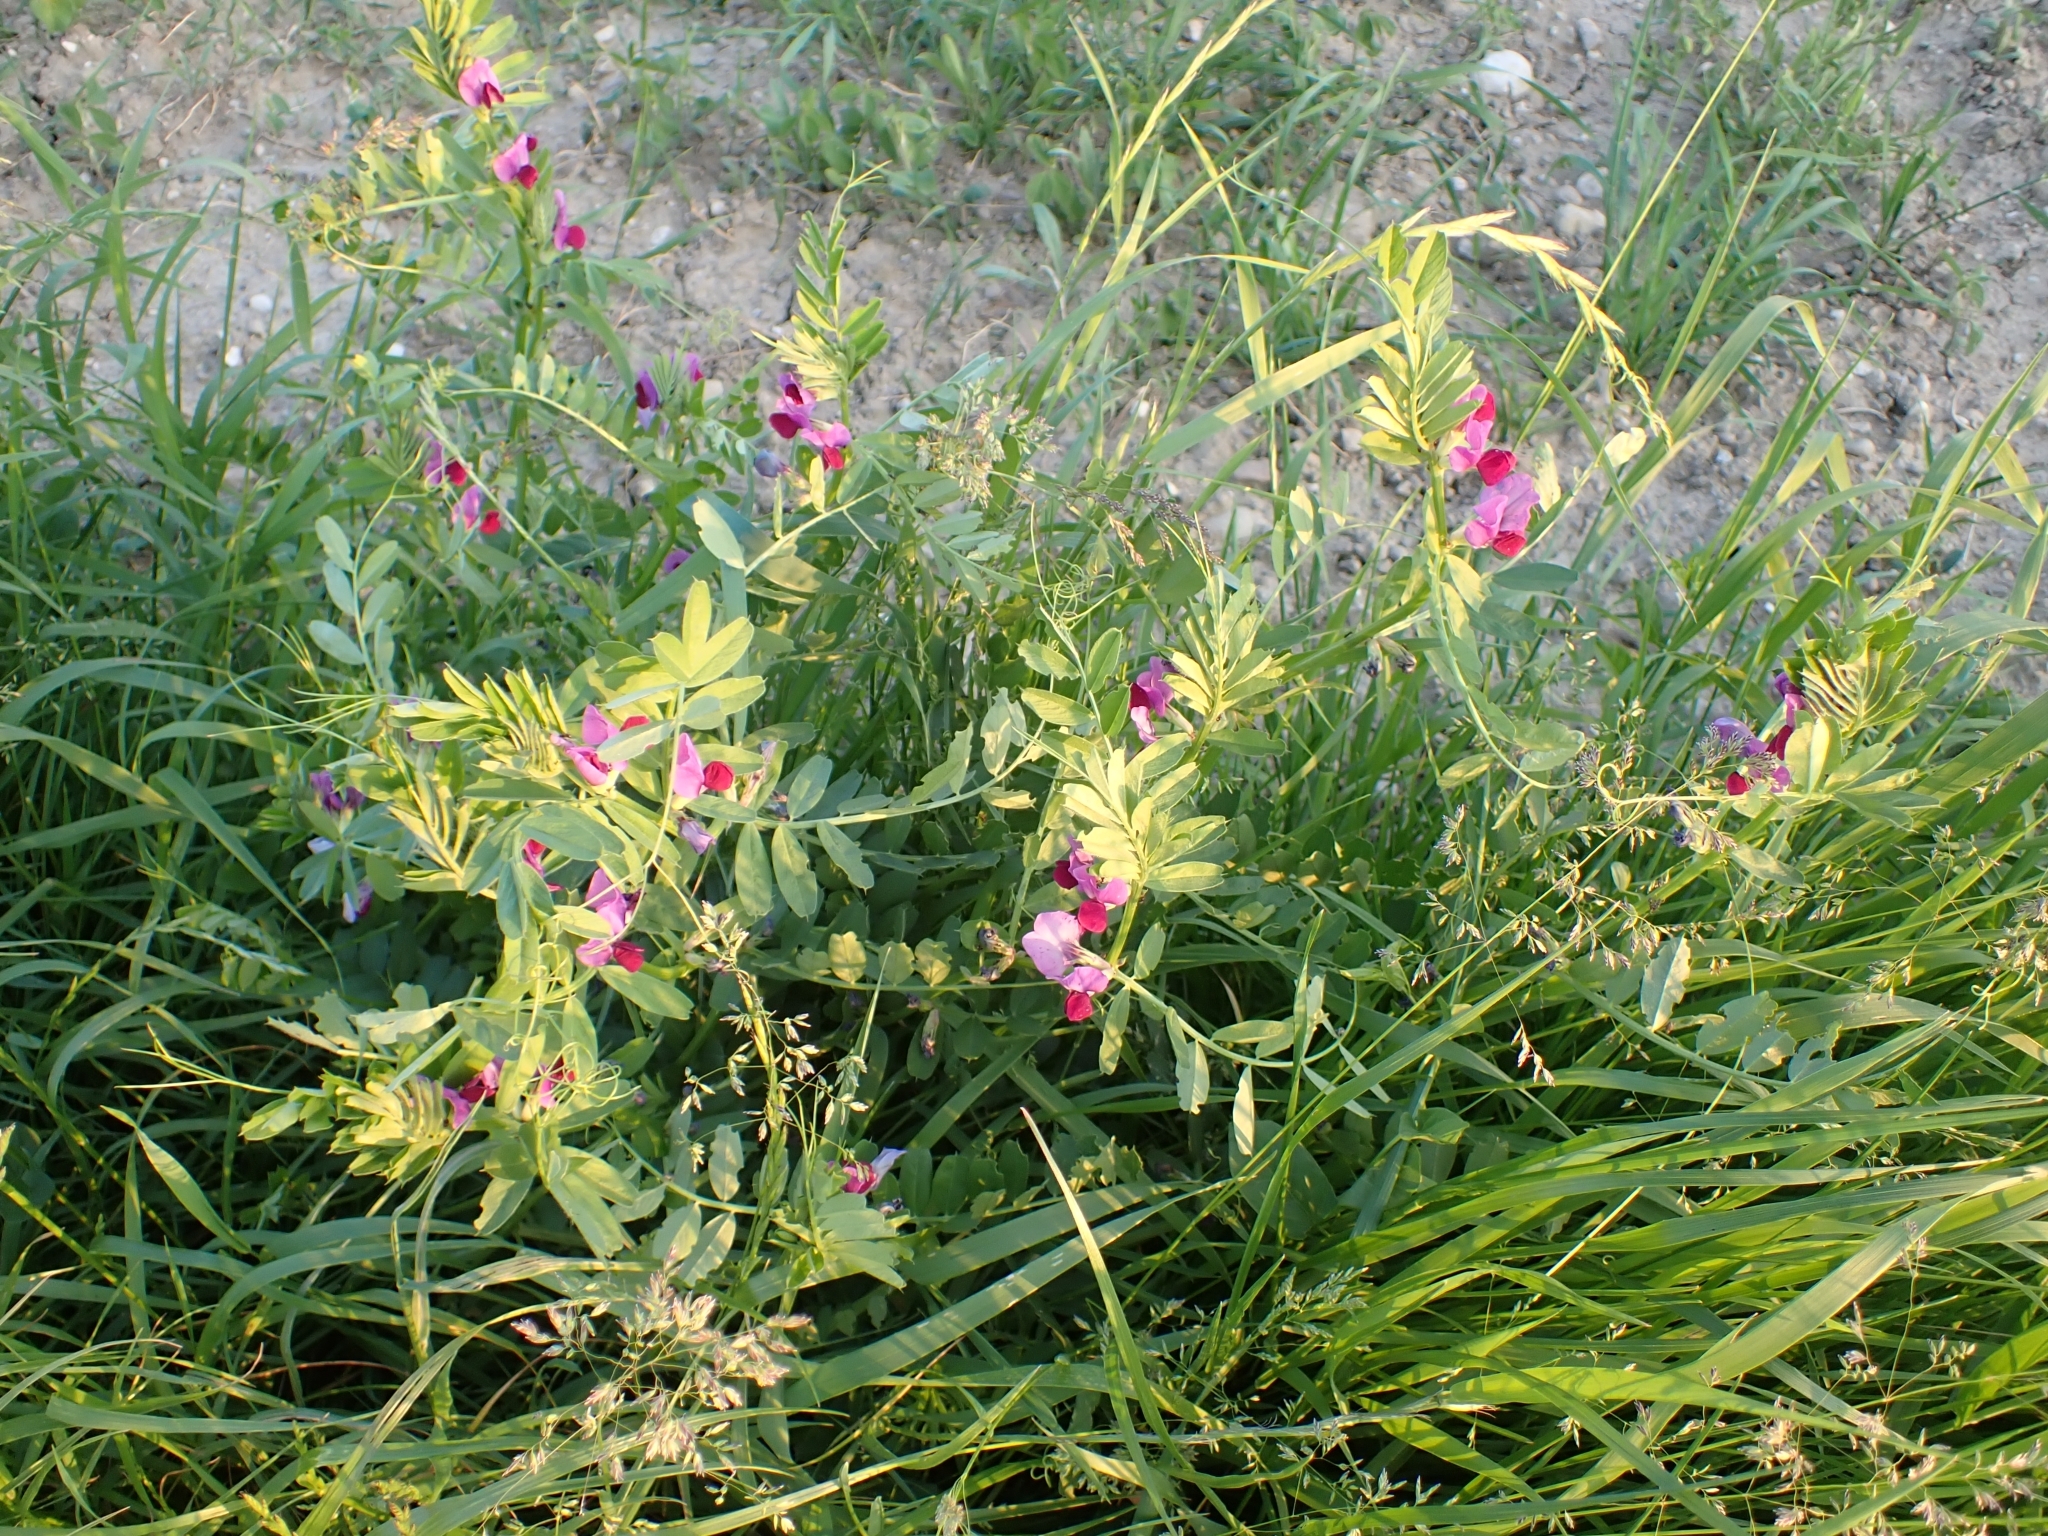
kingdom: Plantae
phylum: Tracheophyta
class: Magnoliopsida
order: Fabales
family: Fabaceae
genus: Vicia
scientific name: Vicia sativa
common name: Garden vetch
